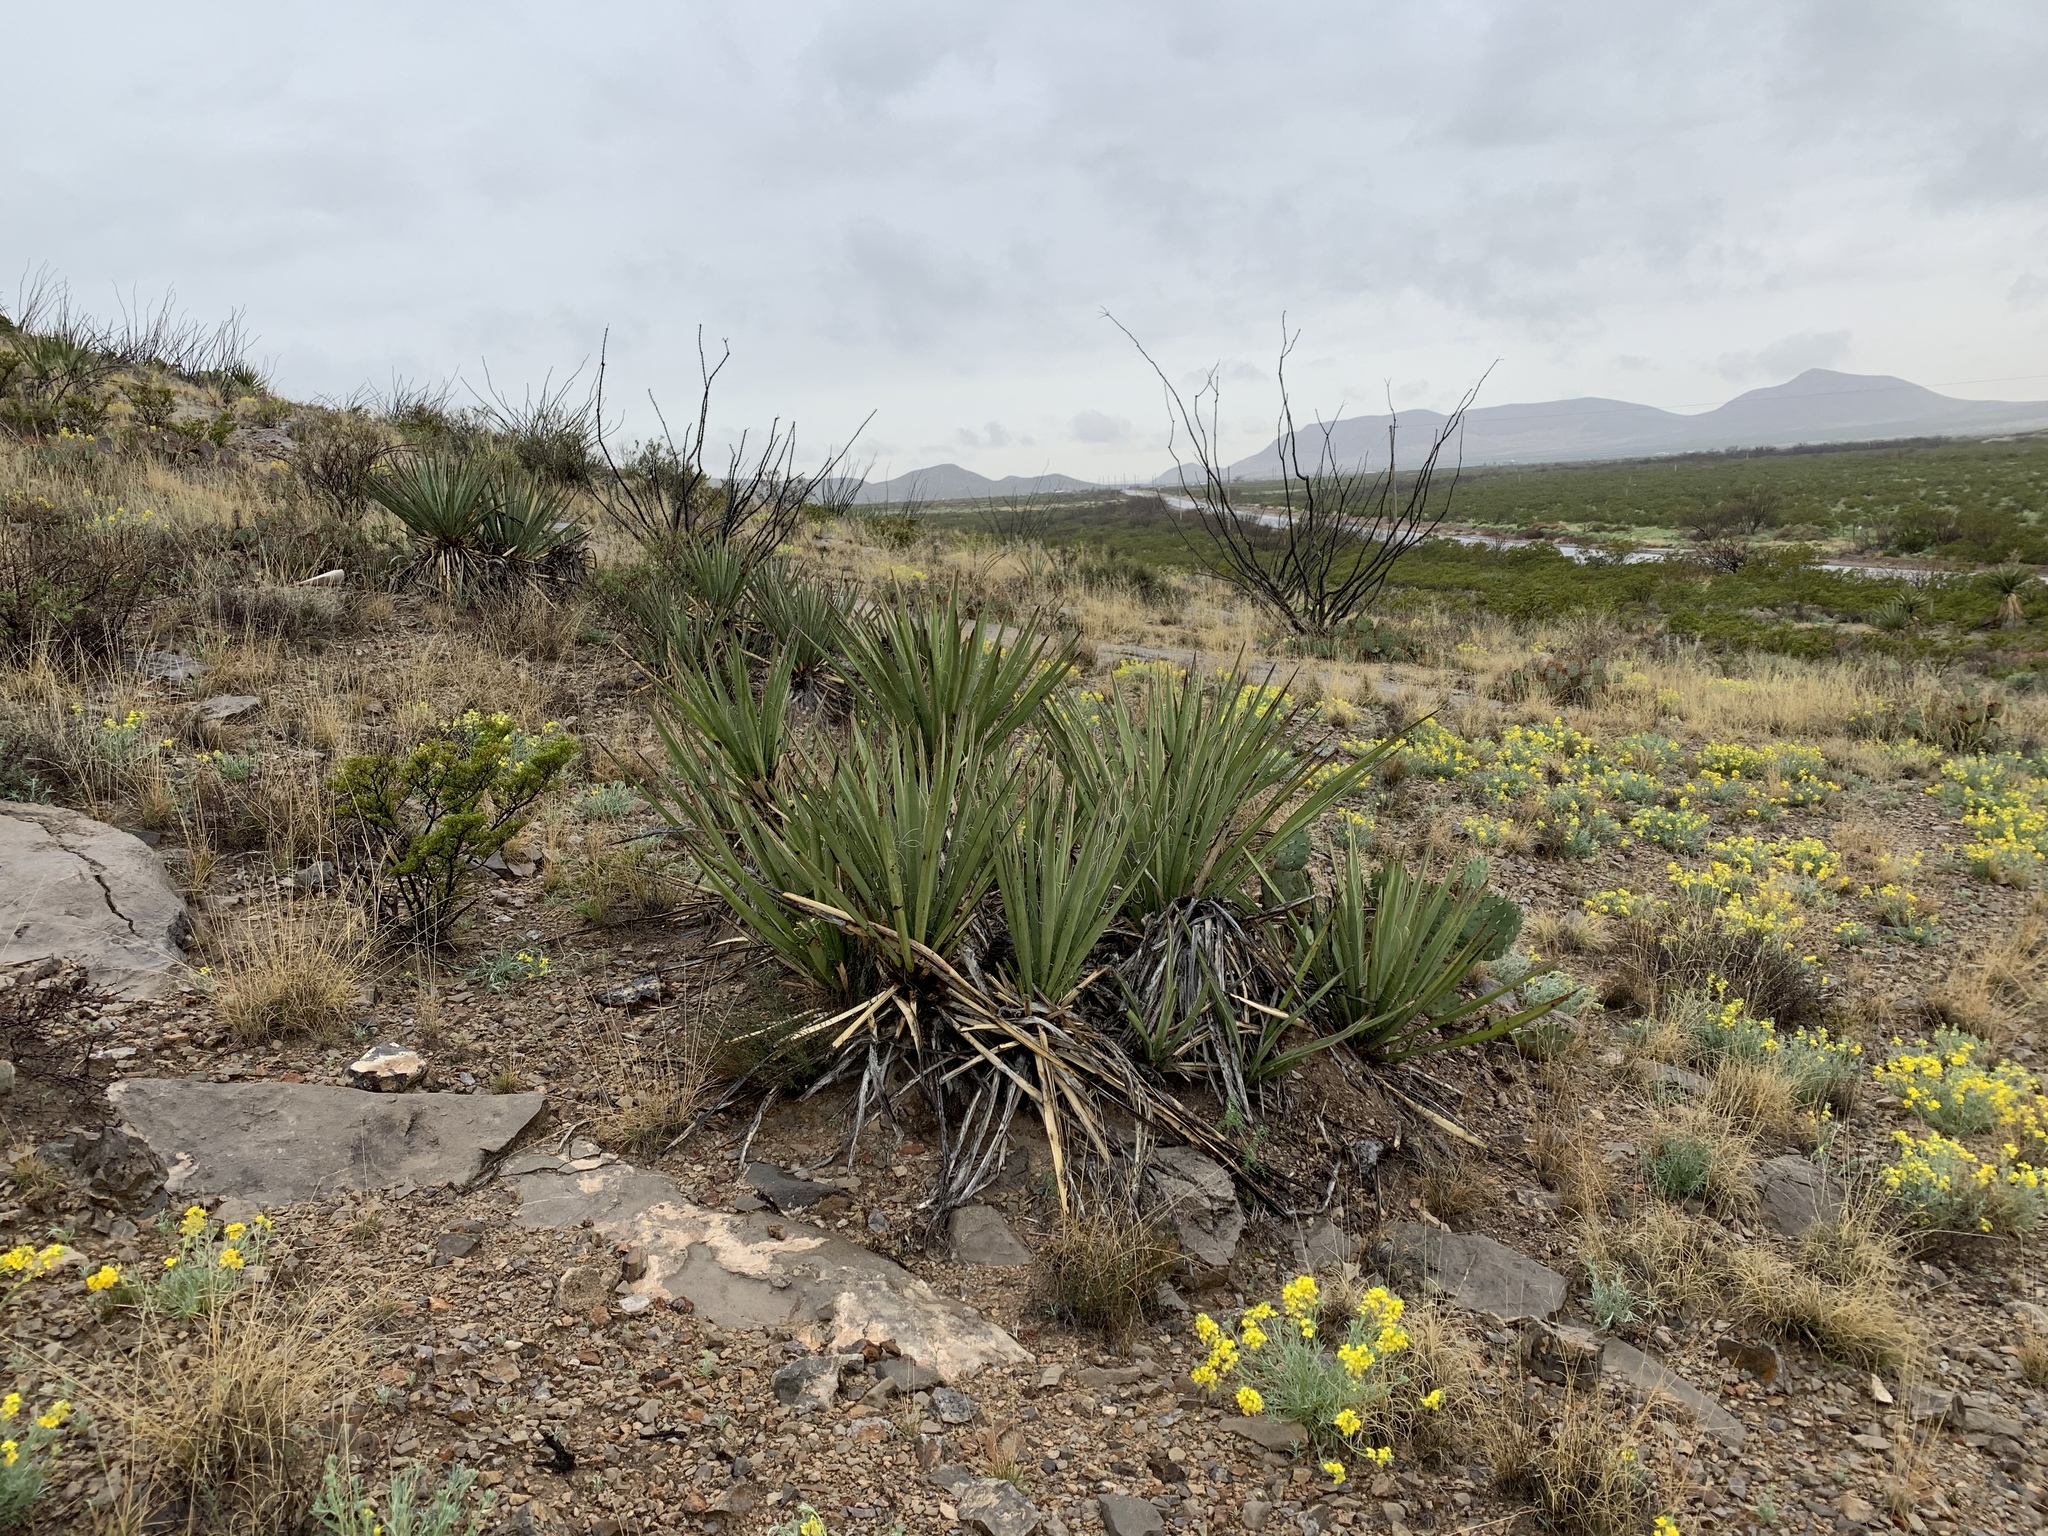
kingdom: Plantae
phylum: Tracheophyta
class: Liliopsida
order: Asparagales
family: Asparagaceae
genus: Yucca
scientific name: Yucca baccata
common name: Banana yucca
